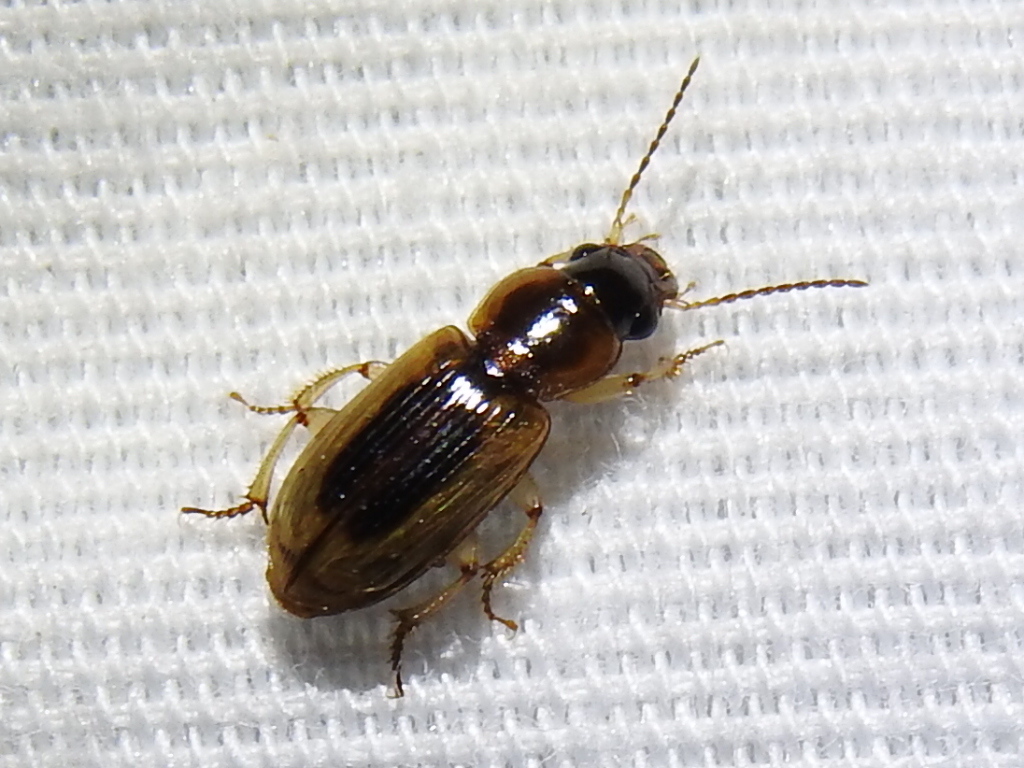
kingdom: Animalia
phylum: Arthropoda
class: Insecta
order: Coleoptera
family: Carabidae
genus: Stenolophus
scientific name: Stenolophus lecontei
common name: Leconte's seedcorn beetle
